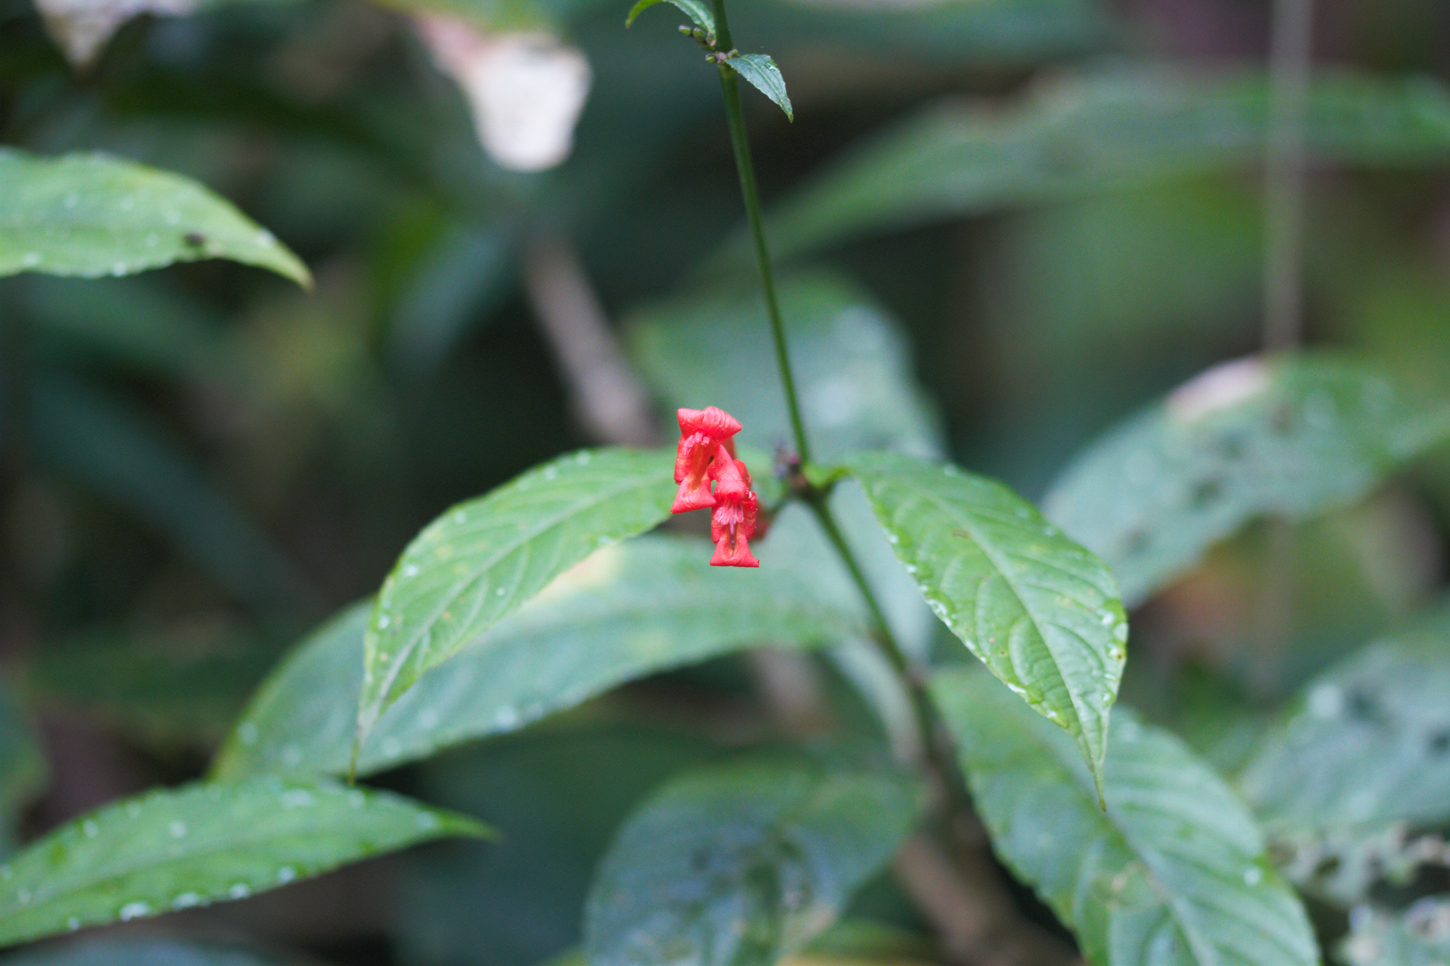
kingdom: Plantae
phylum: Tracheophyta
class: Magnoliopsida
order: Lamiales
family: Acanthaceae
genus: Ruellia
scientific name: Ruellia fulgens
